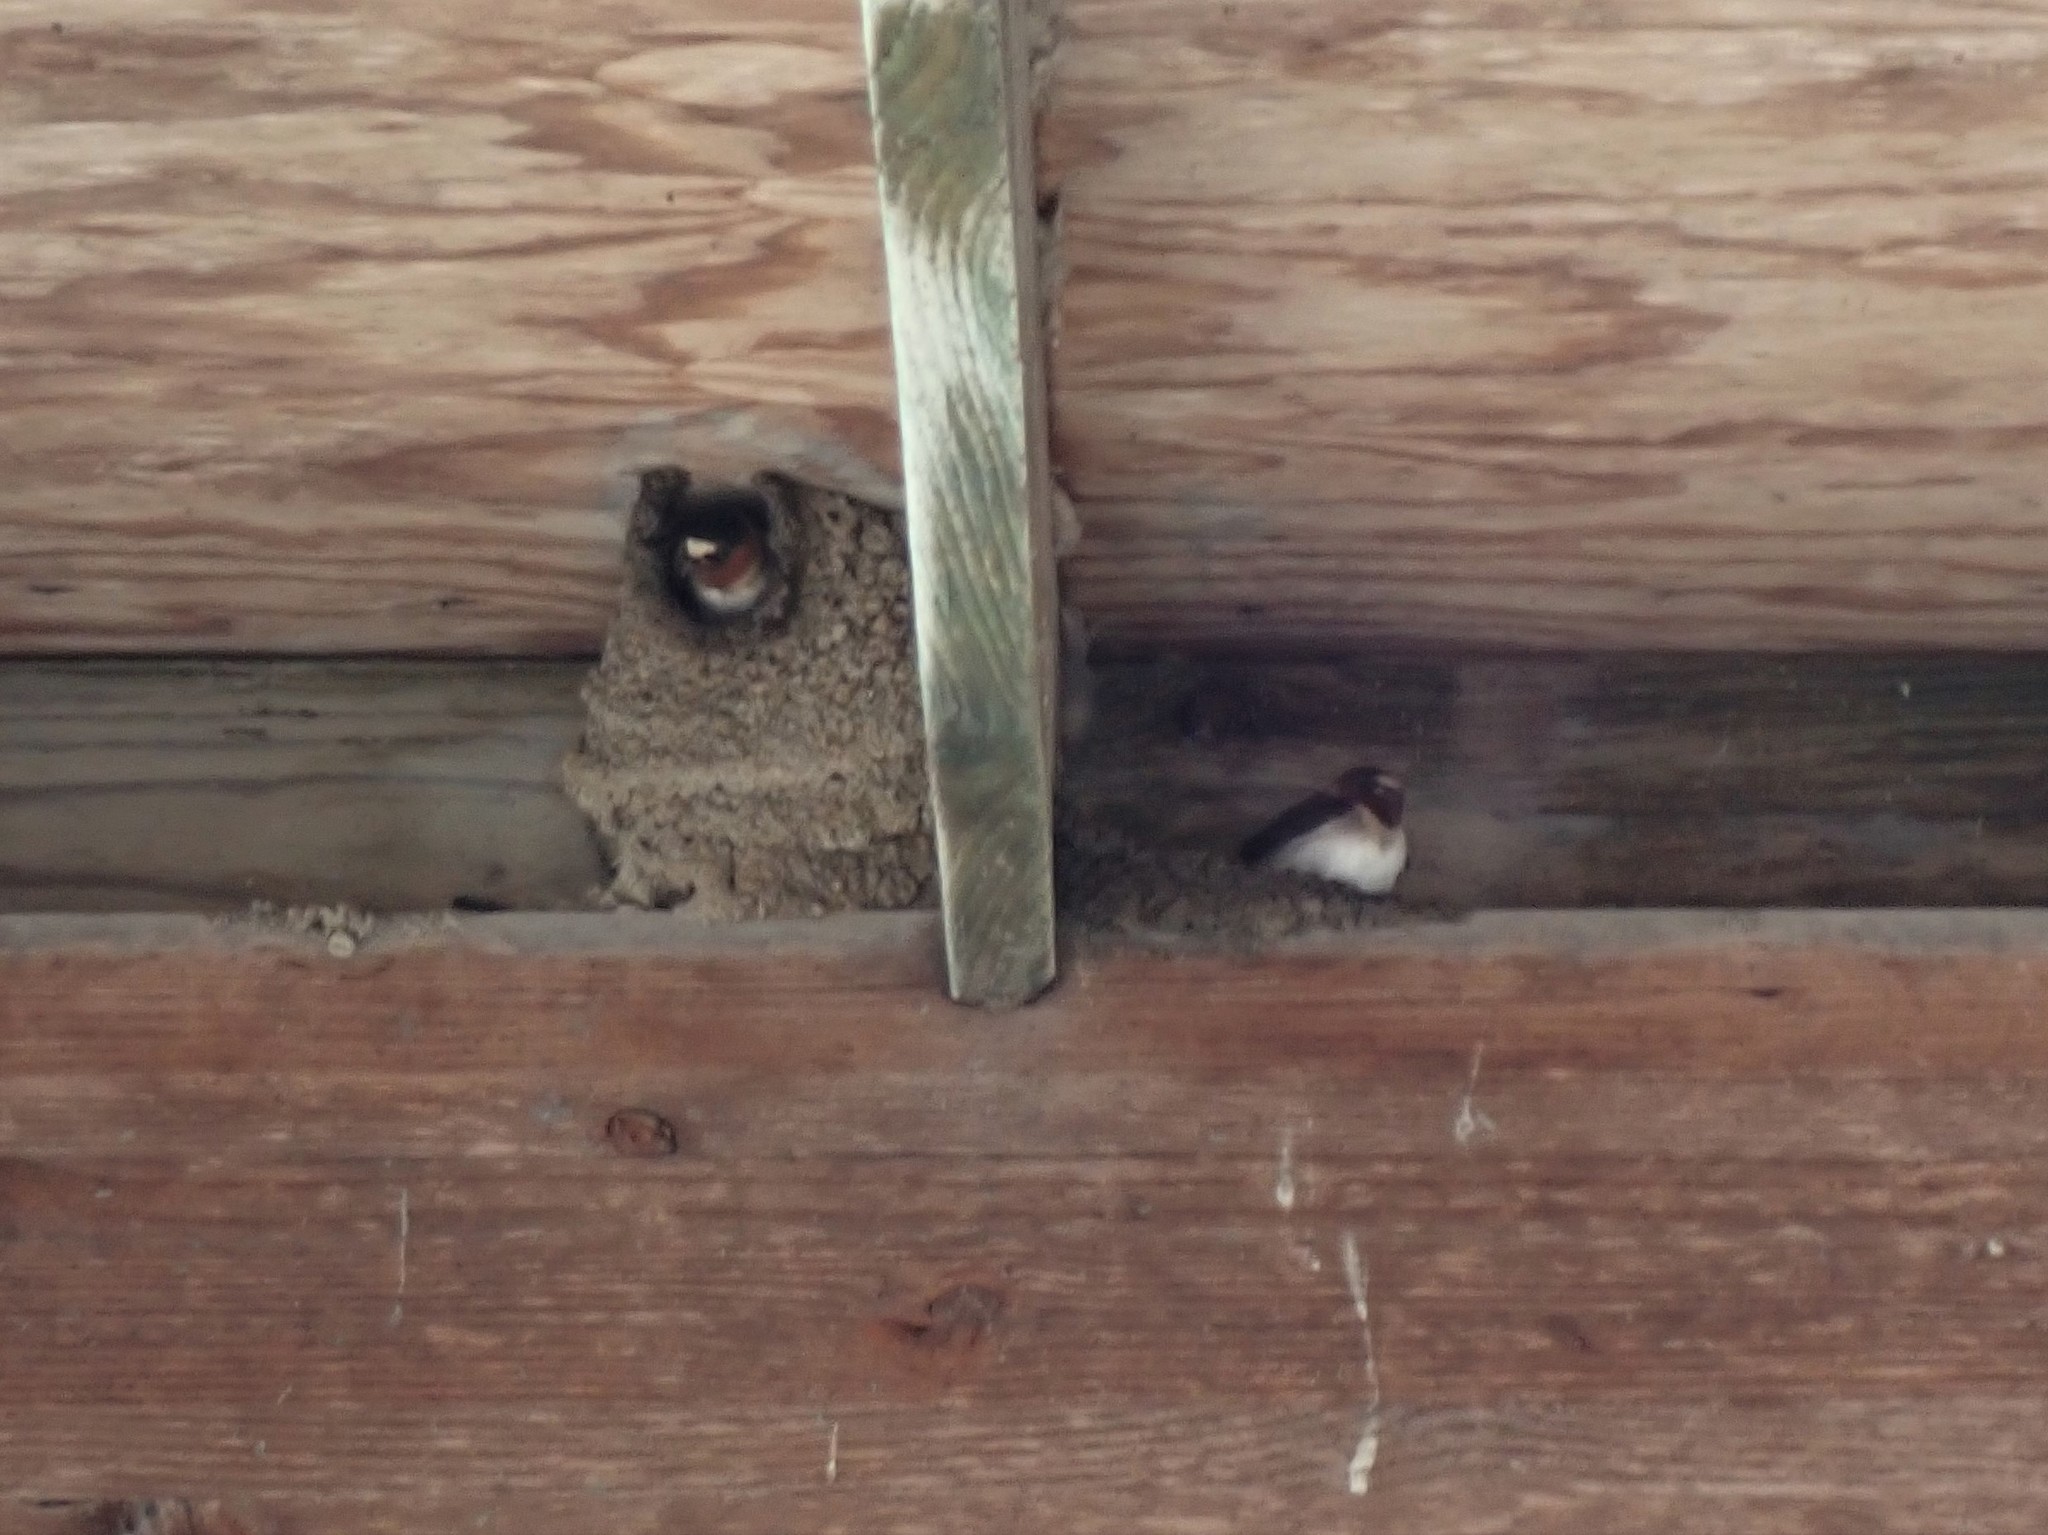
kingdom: Animalia
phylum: Chordata
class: Aves
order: Passeriformes
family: Hirundinidae
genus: Petrochelidon
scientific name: Petrochelidon pyrrhonota
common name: American cliff swallow
